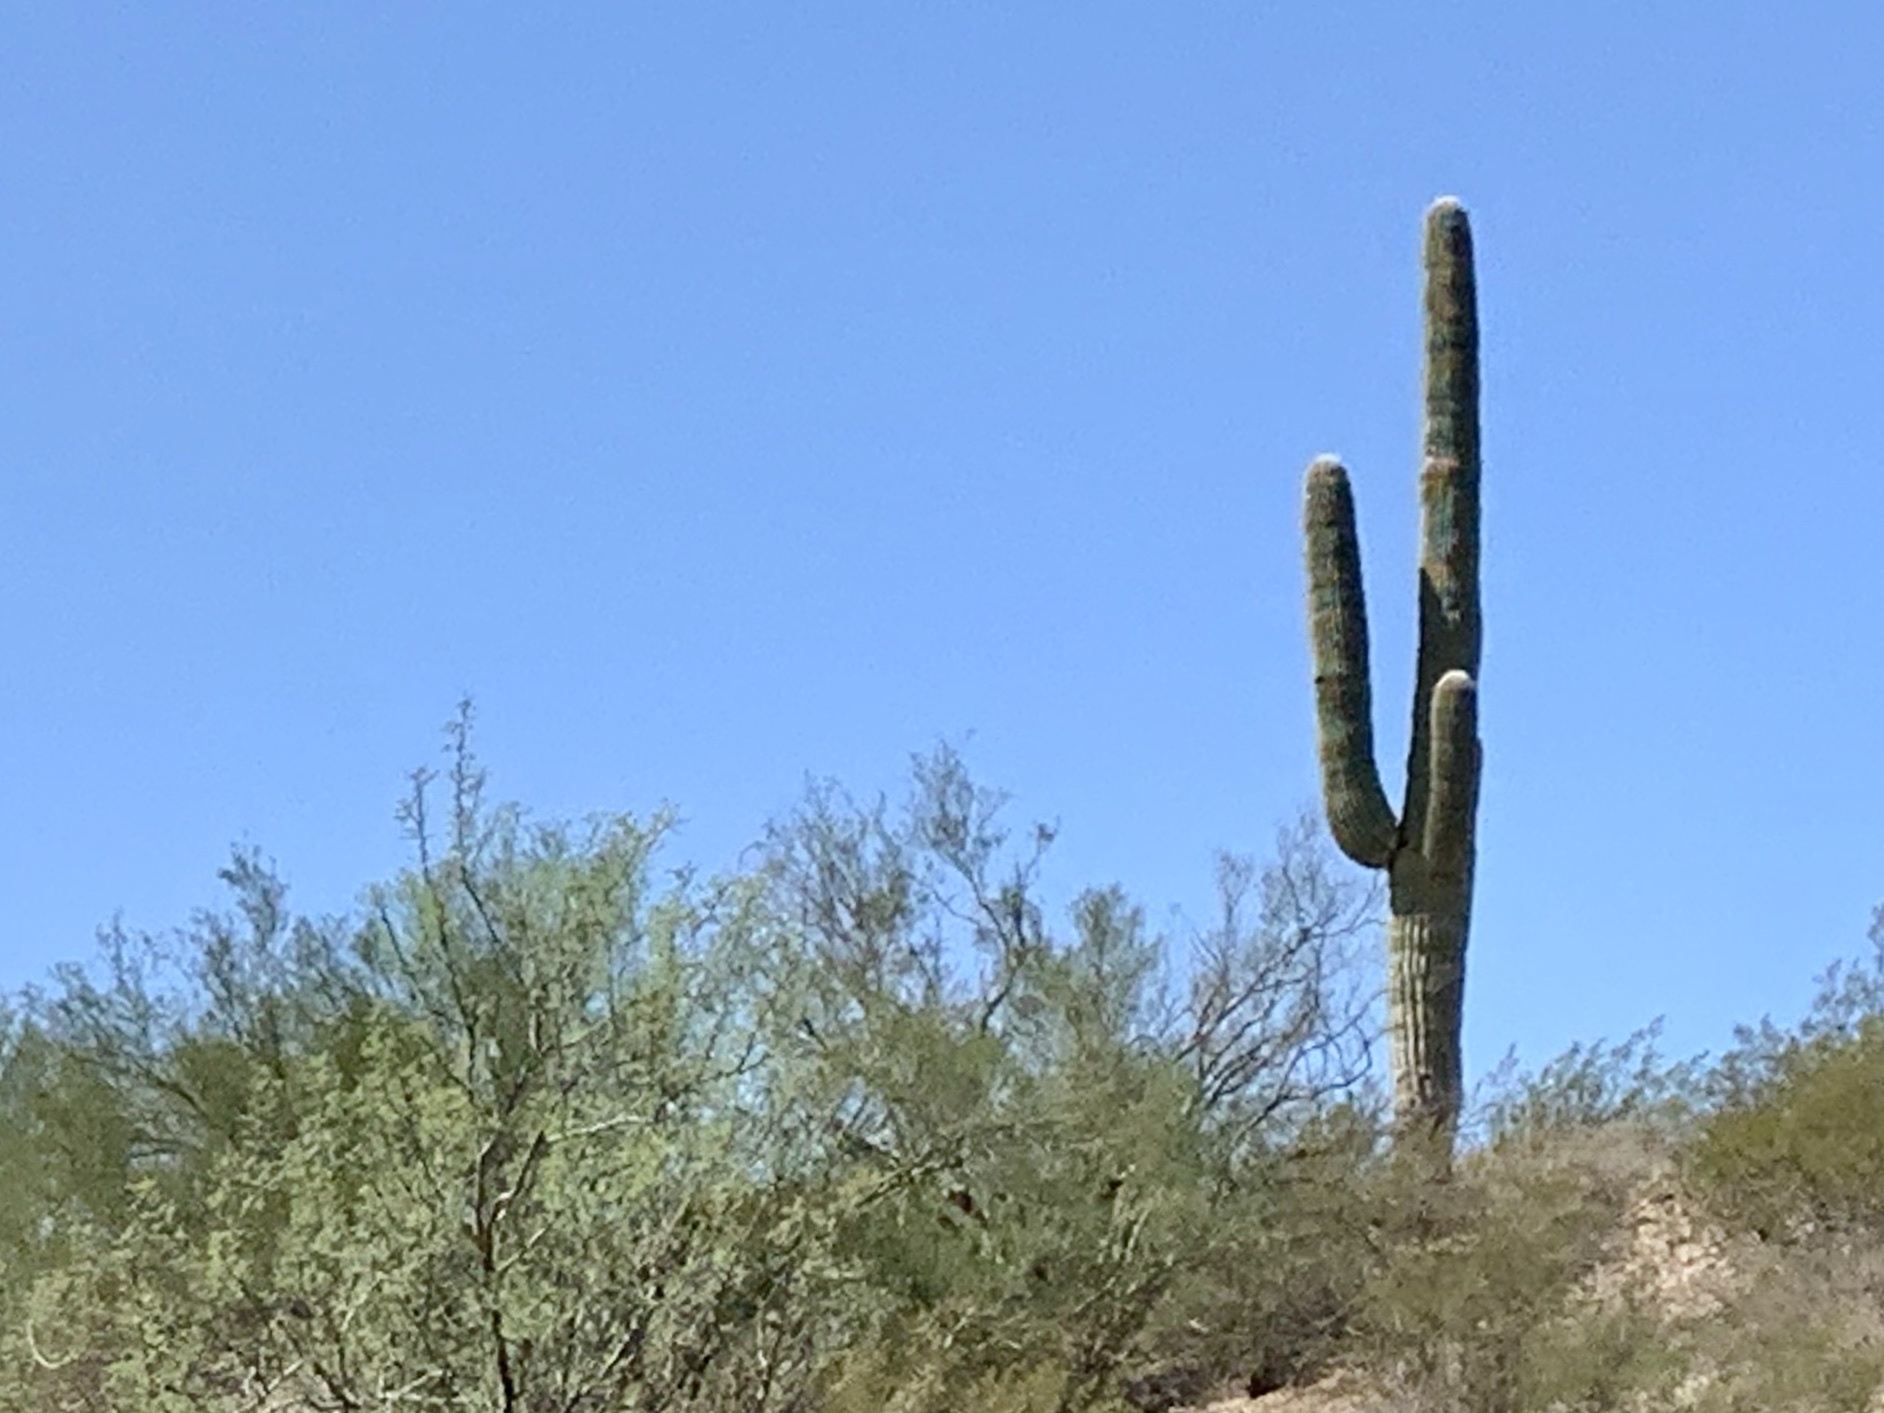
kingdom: Plantae
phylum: Tracheophyta
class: Magnoliopsida
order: Caryophyllales
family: Cactaceae
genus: Carnegiea
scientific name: Carnegiea gigantea
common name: Saguaro
